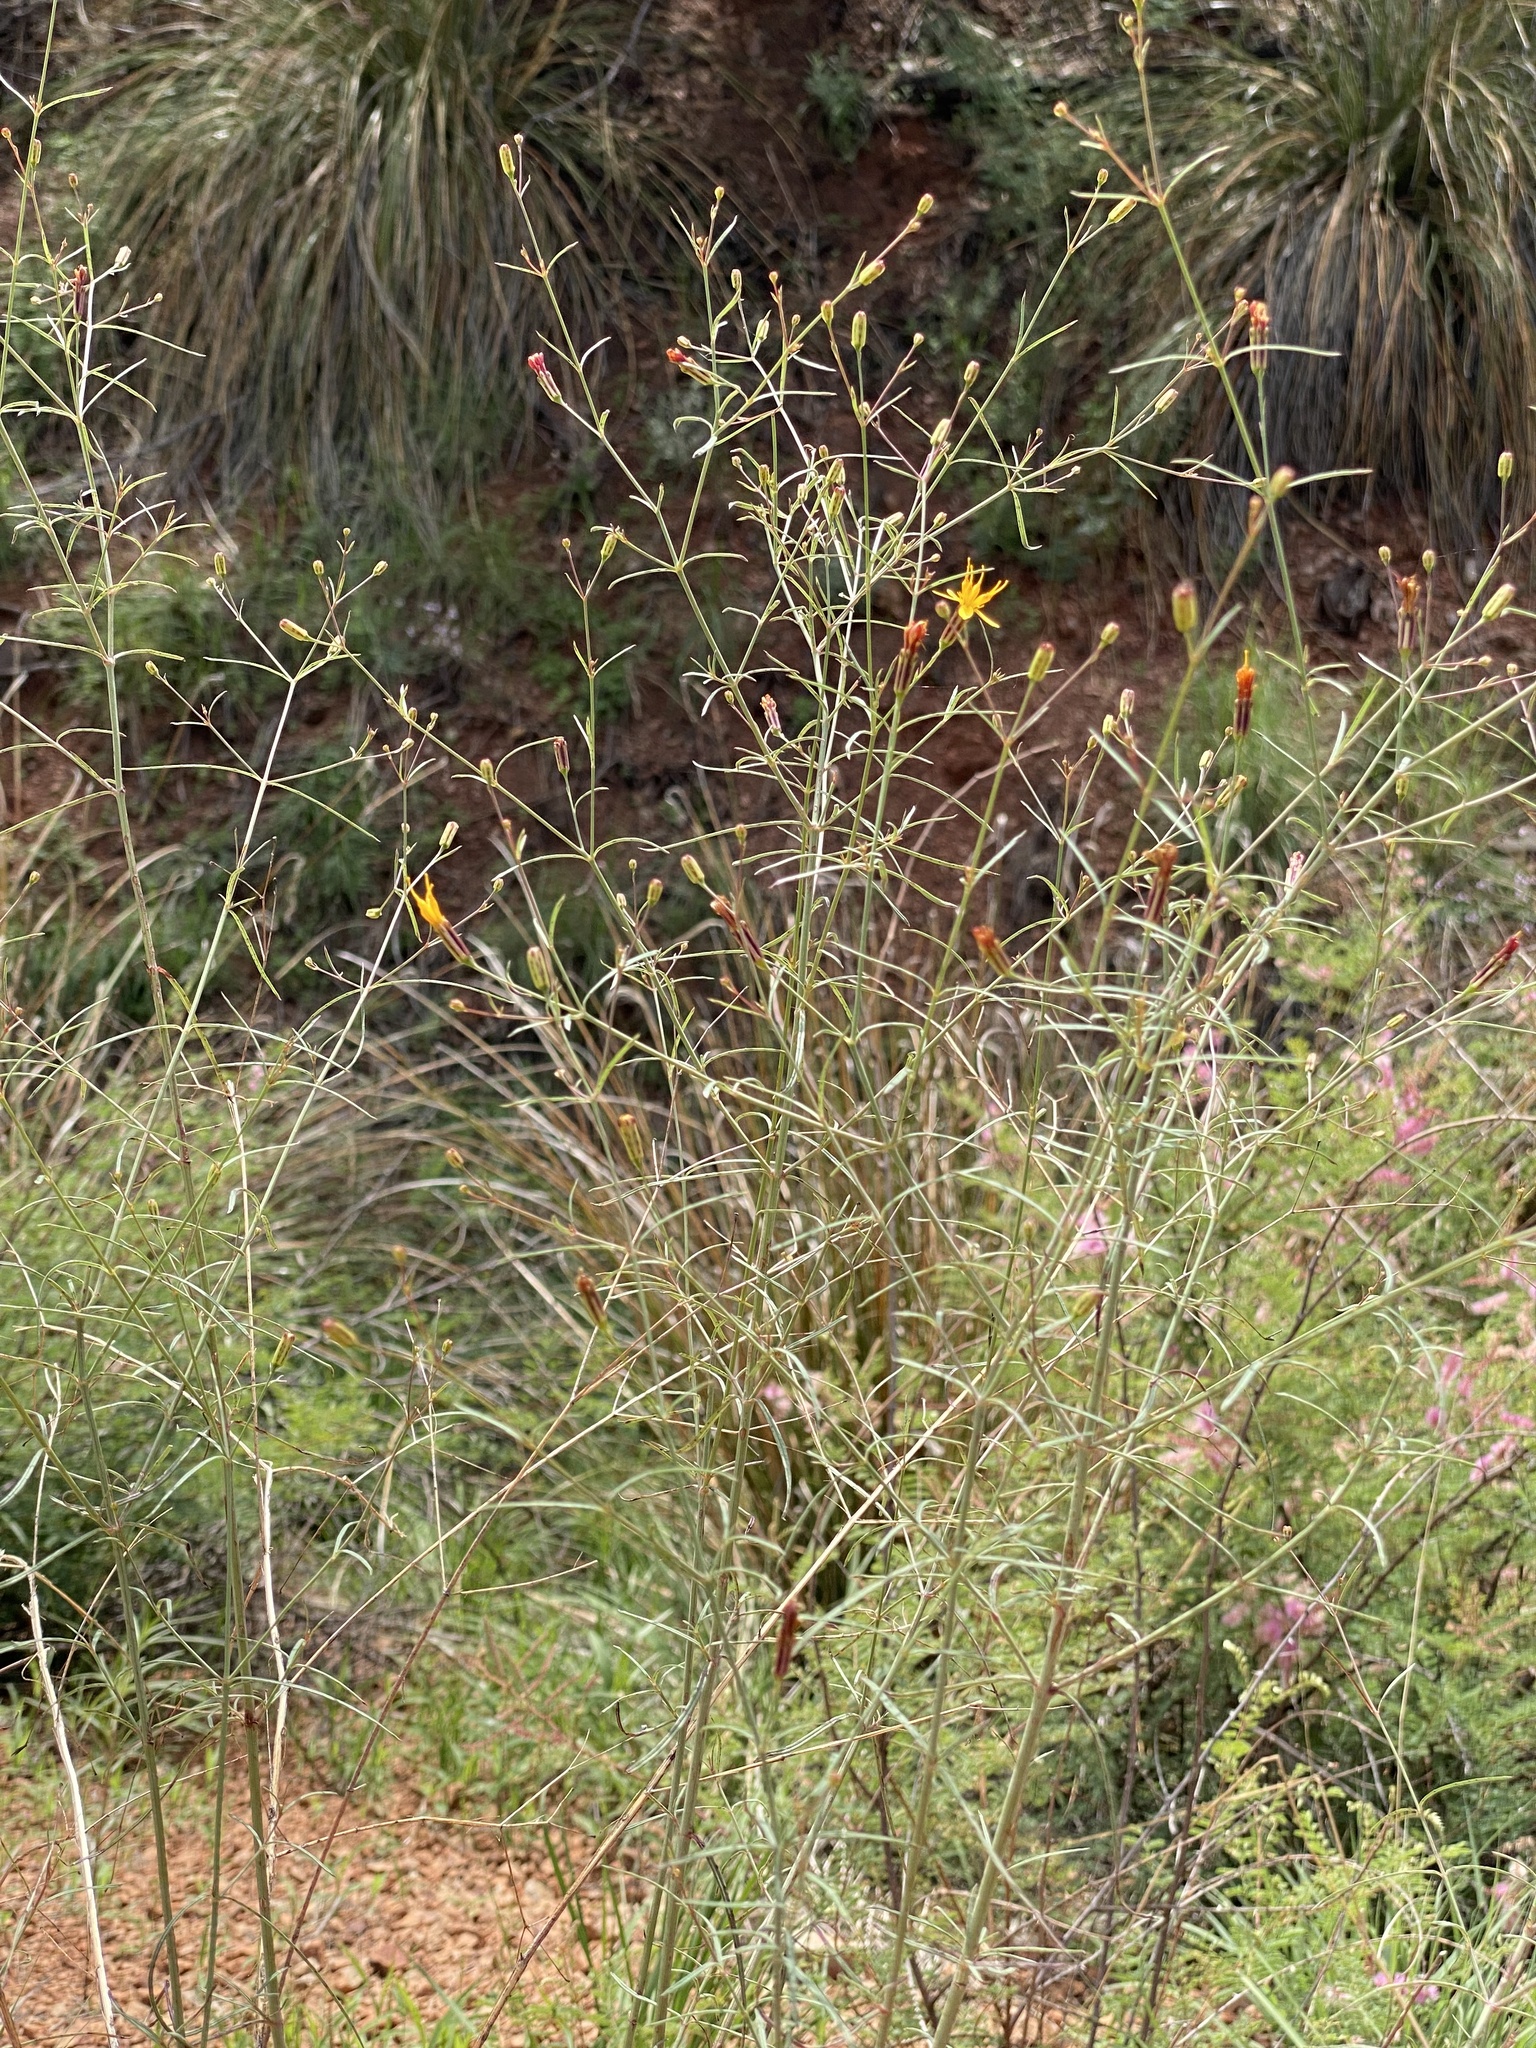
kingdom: Plantae
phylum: Tracheophyta
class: Magnoliopsida
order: Asterales
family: Asteraceae
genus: Pectis
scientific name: Pectis imberbis
